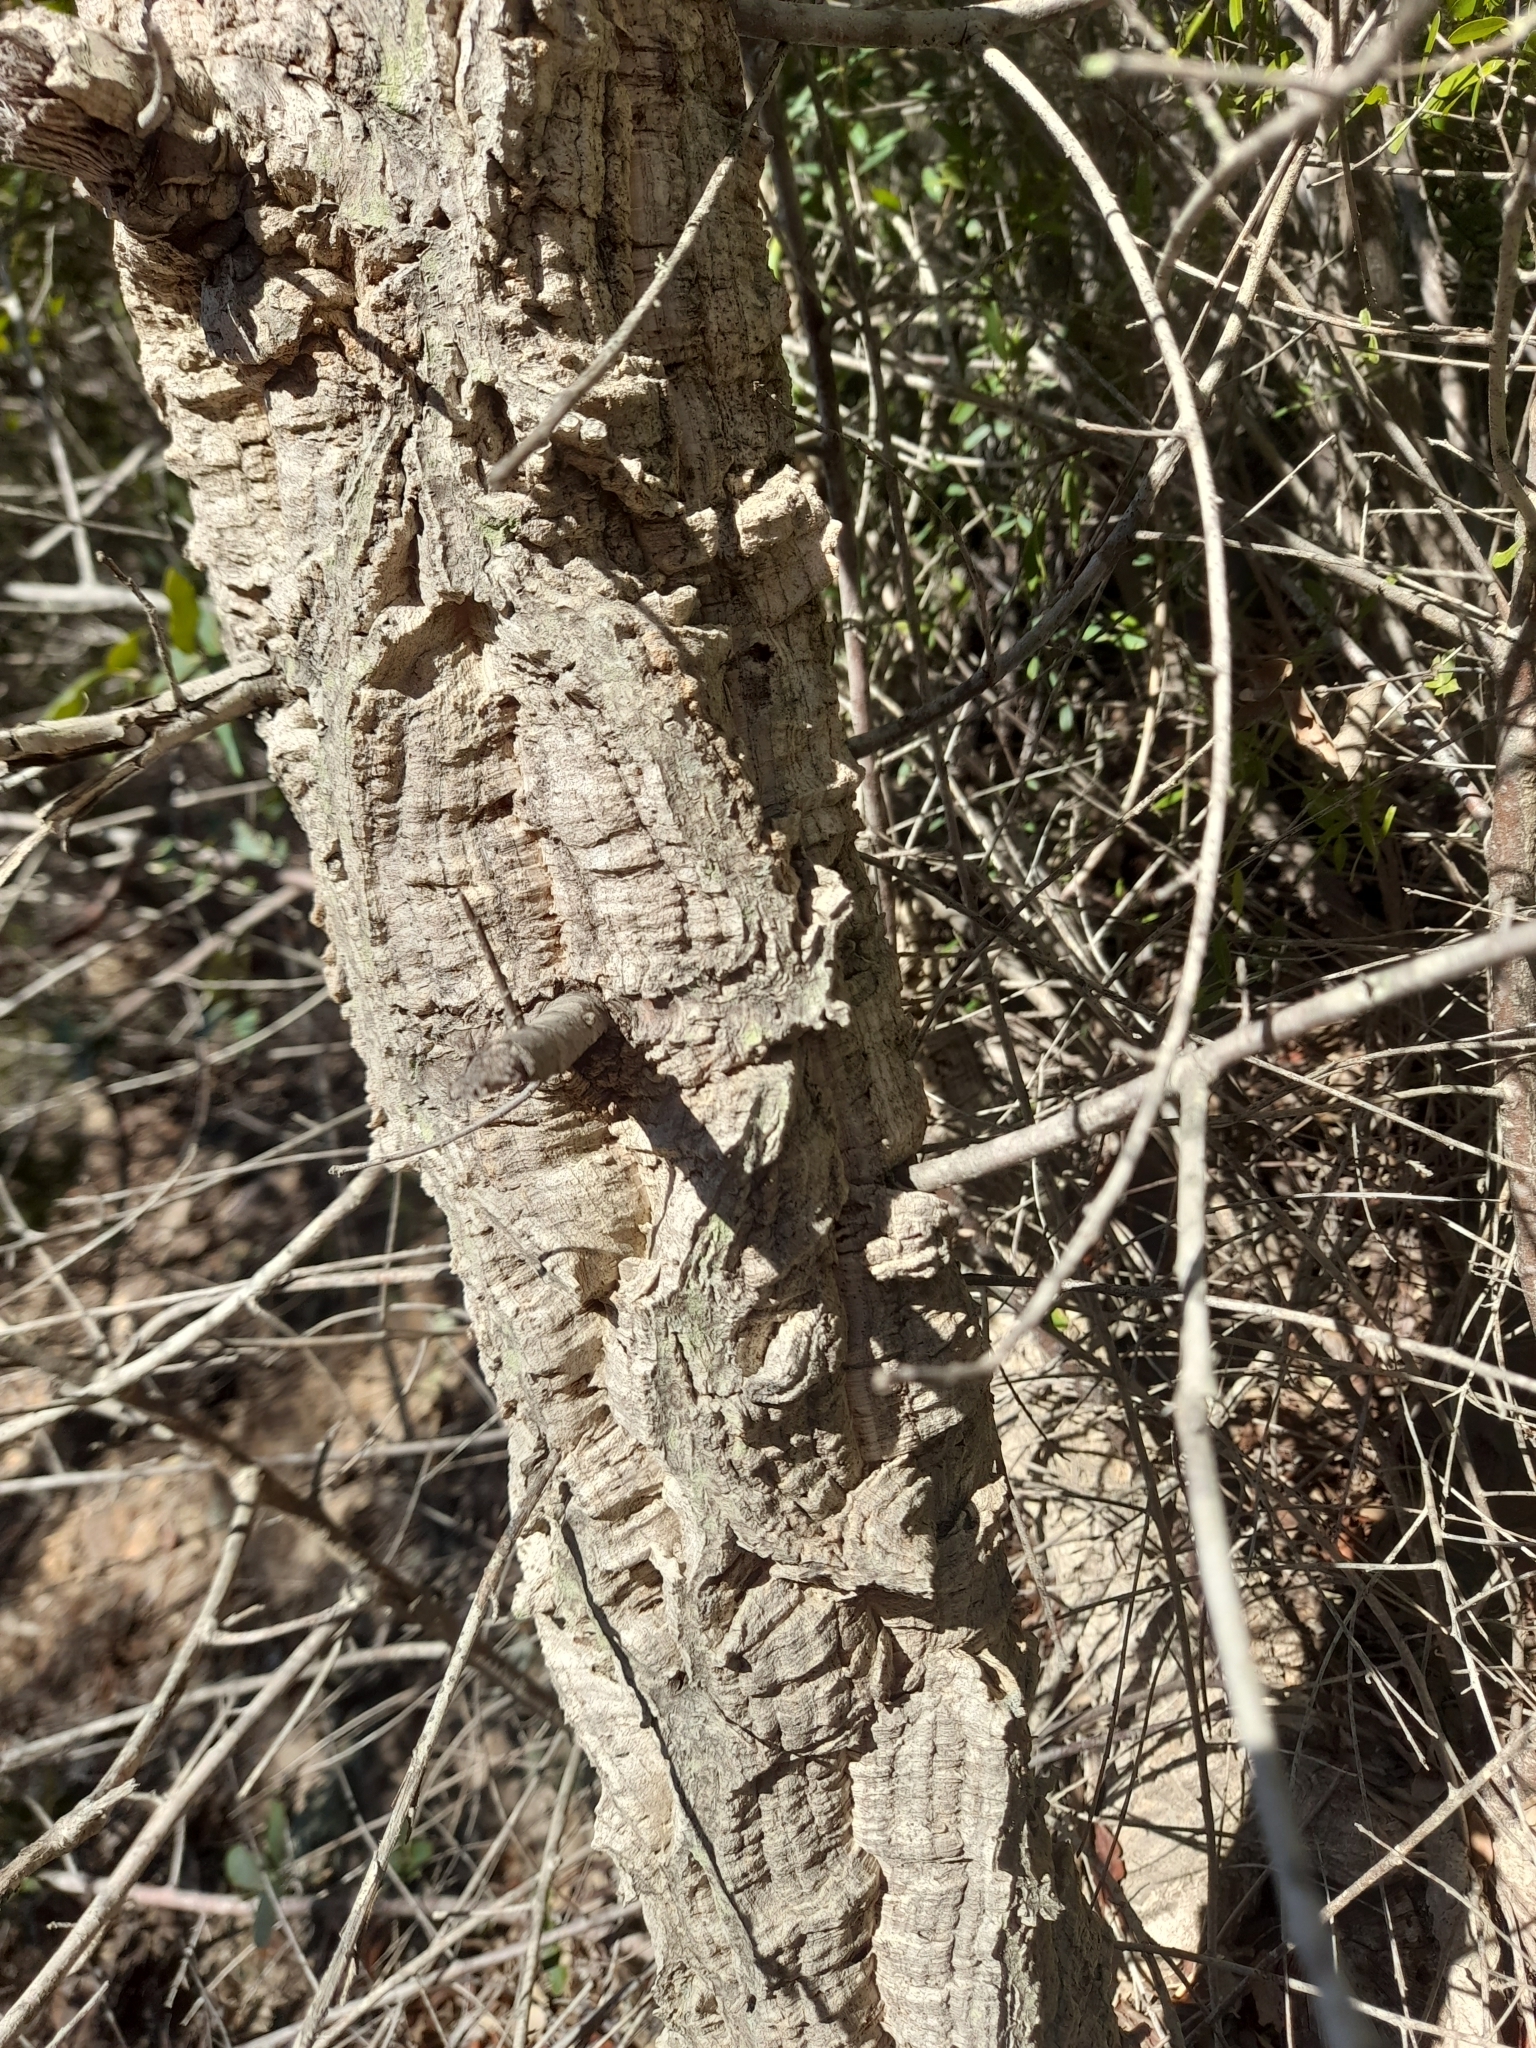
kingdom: Plantae
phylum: Tracheophyta
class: Magnoliopsida
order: Fagales
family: Fagaceae
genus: Quercus
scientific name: Quercus suber
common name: Cork oak
